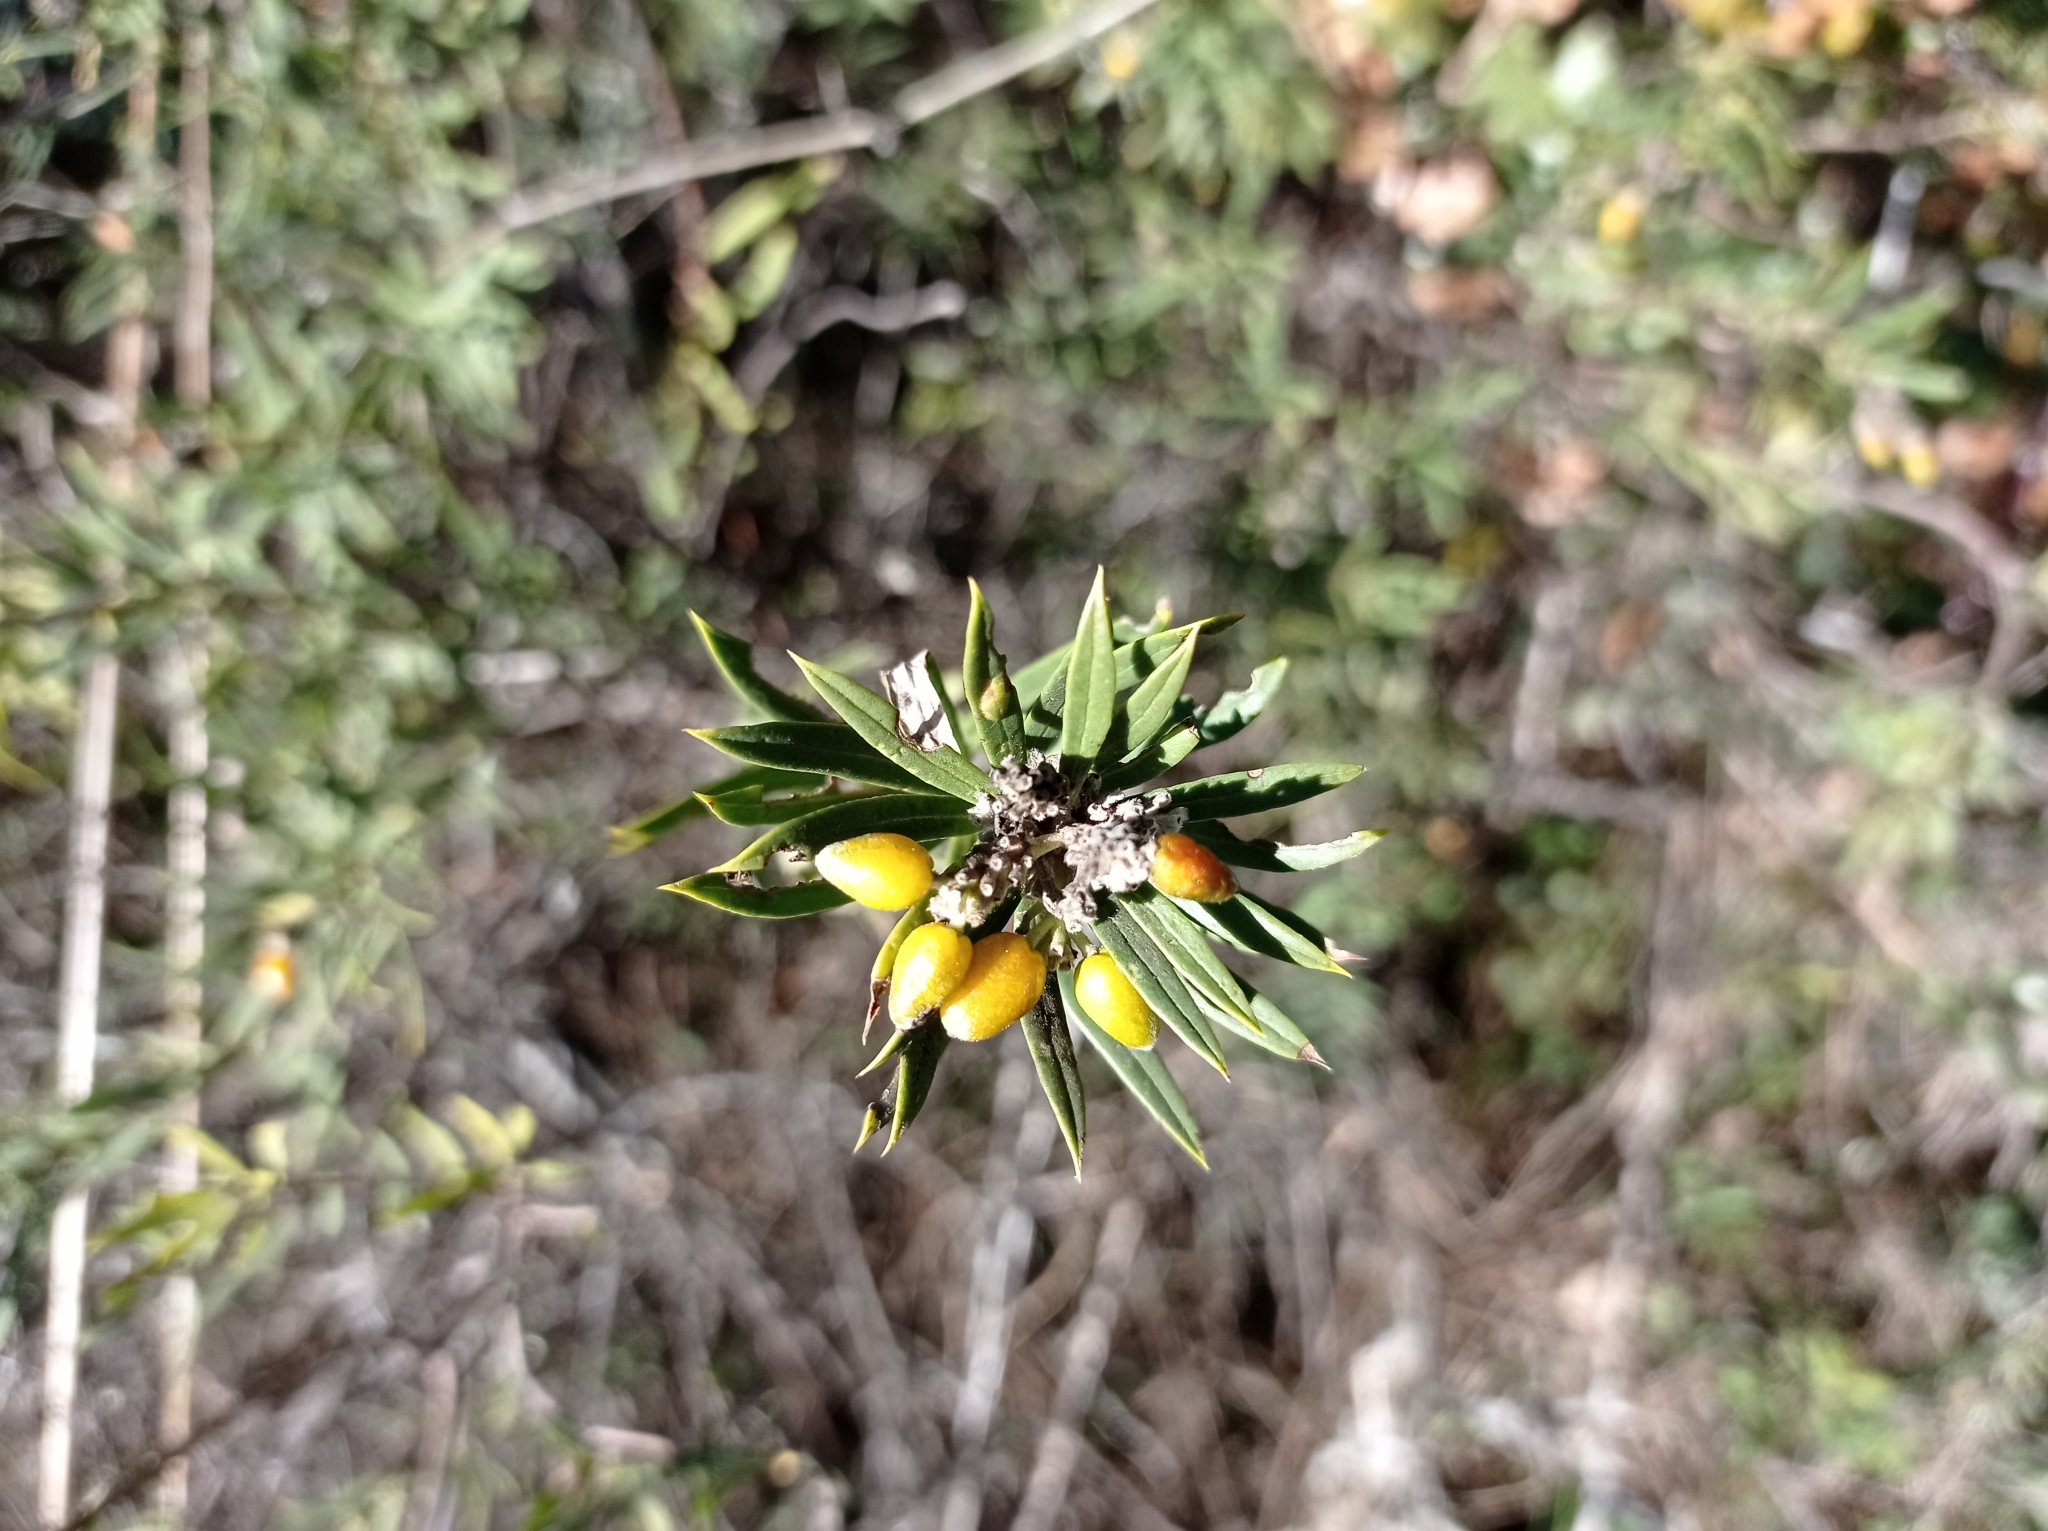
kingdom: Plantae
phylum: Tracheophyta
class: Magnoliopsida
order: Malvales
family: Thymelaeaceae
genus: Daphne
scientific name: Daphne gnidium
